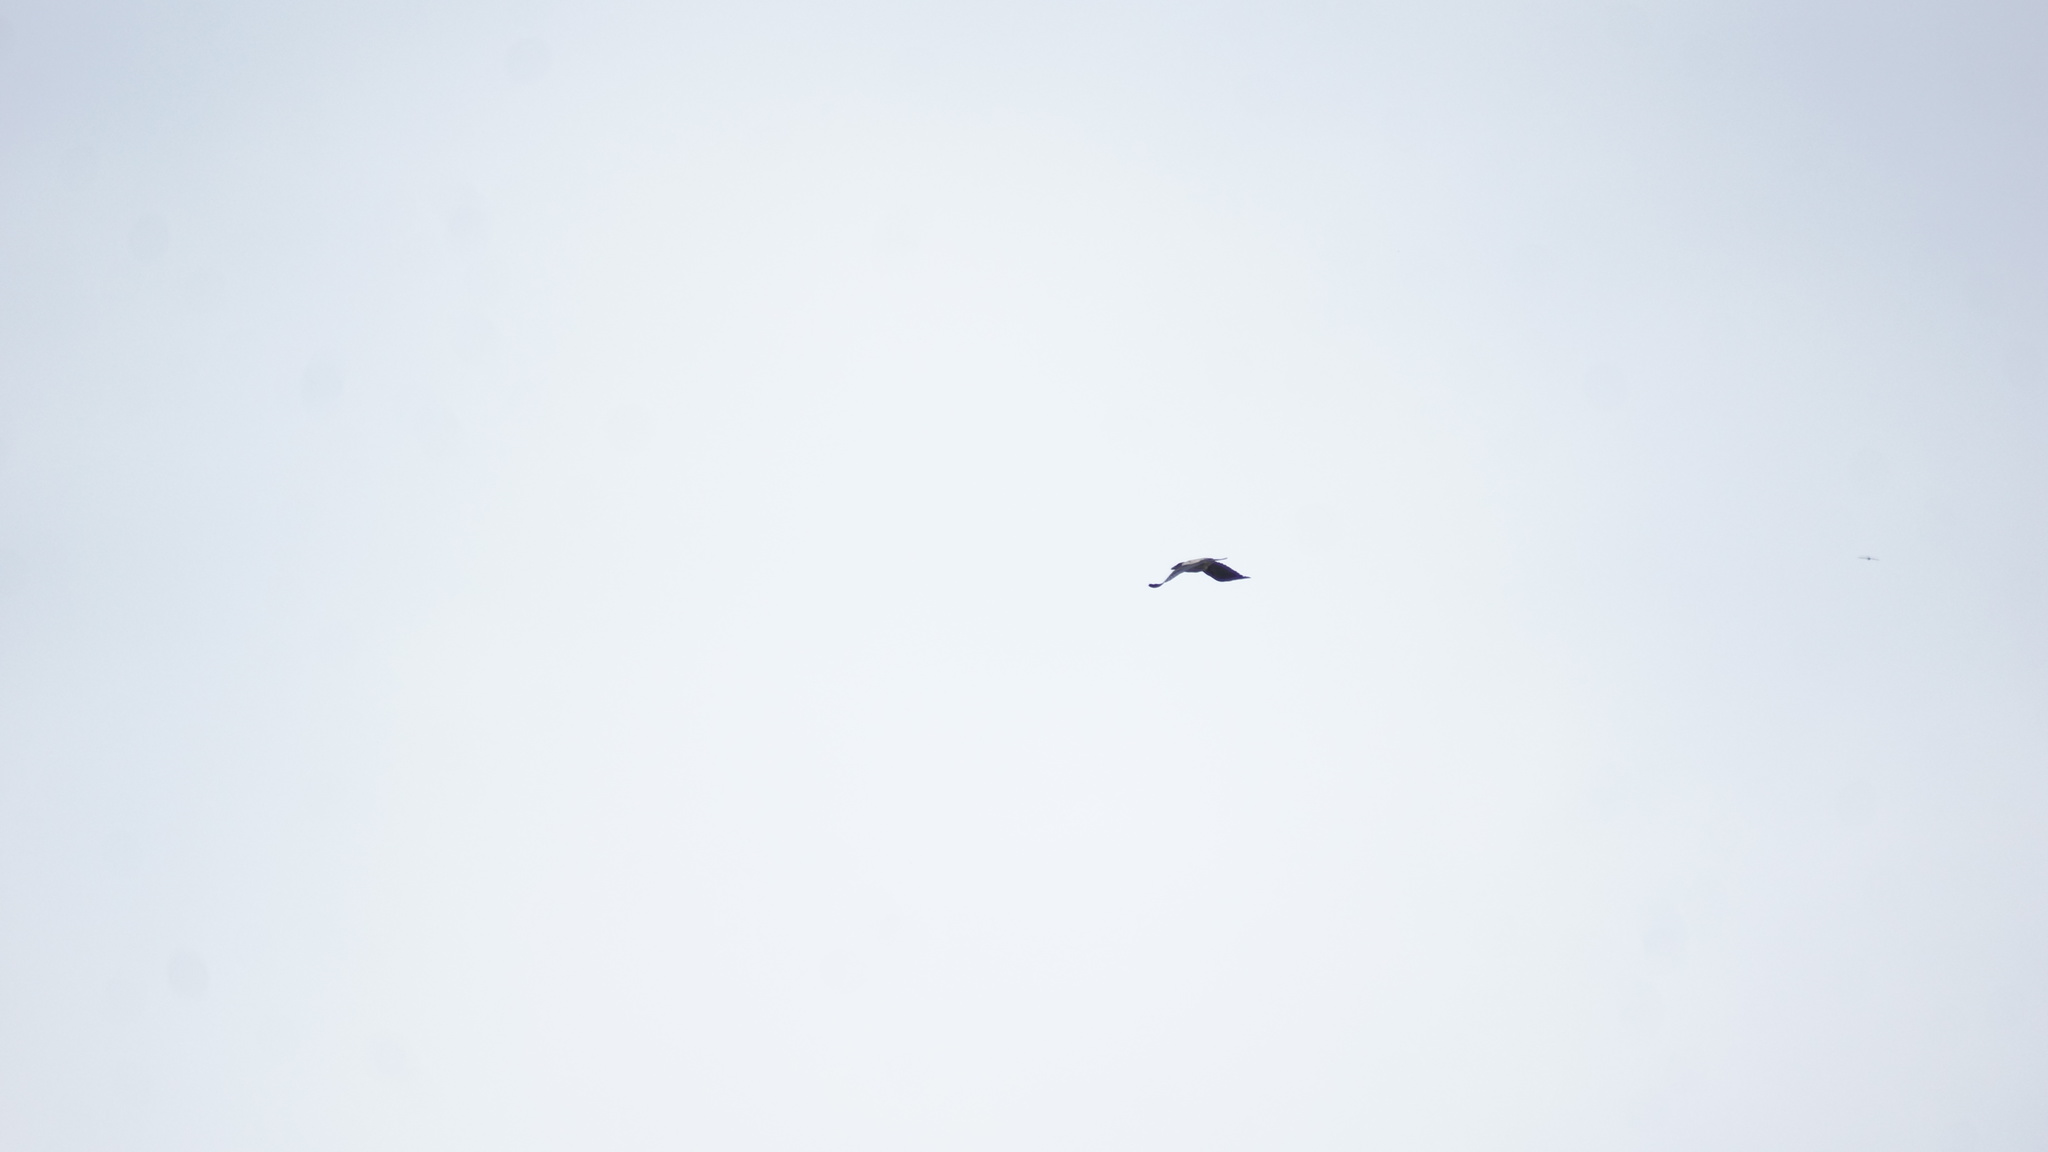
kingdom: Animalia
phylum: Chordata
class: Aves
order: Passeriformes
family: Corvidae
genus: Corvus
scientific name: Corvus cornix
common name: Hooded crow
